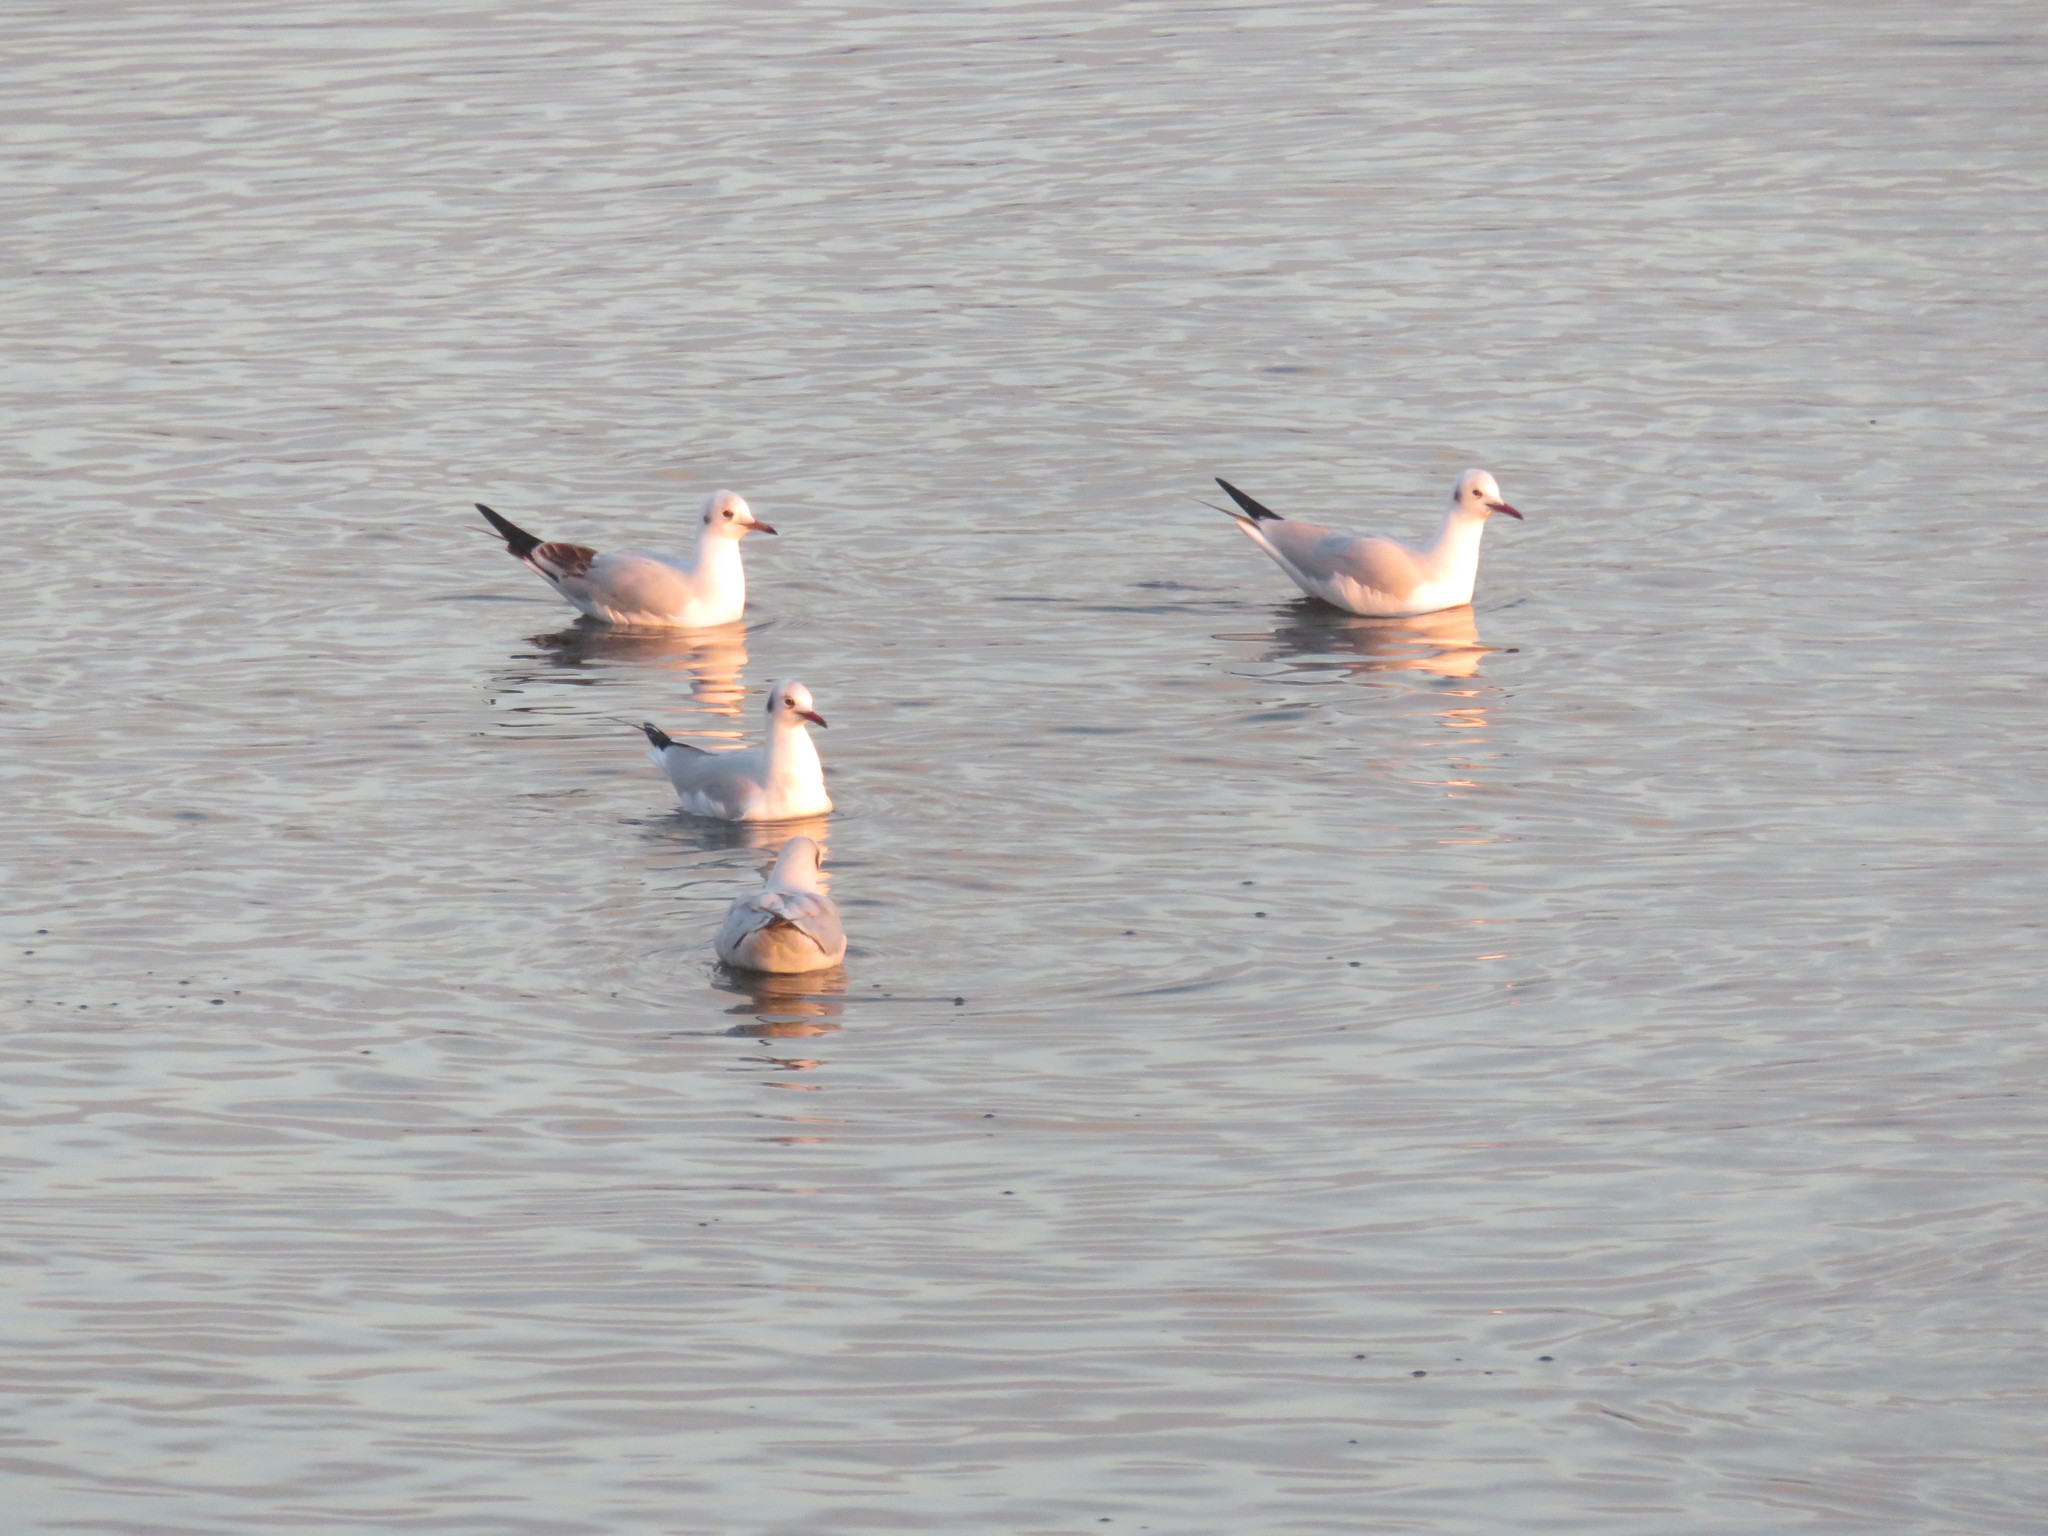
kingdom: Animalia
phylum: Chordata
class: Aves
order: Charadriiformes
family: Laridae
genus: Chroicocephalus
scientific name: Chroicocephalus ridibundus
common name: Black-headed gull
